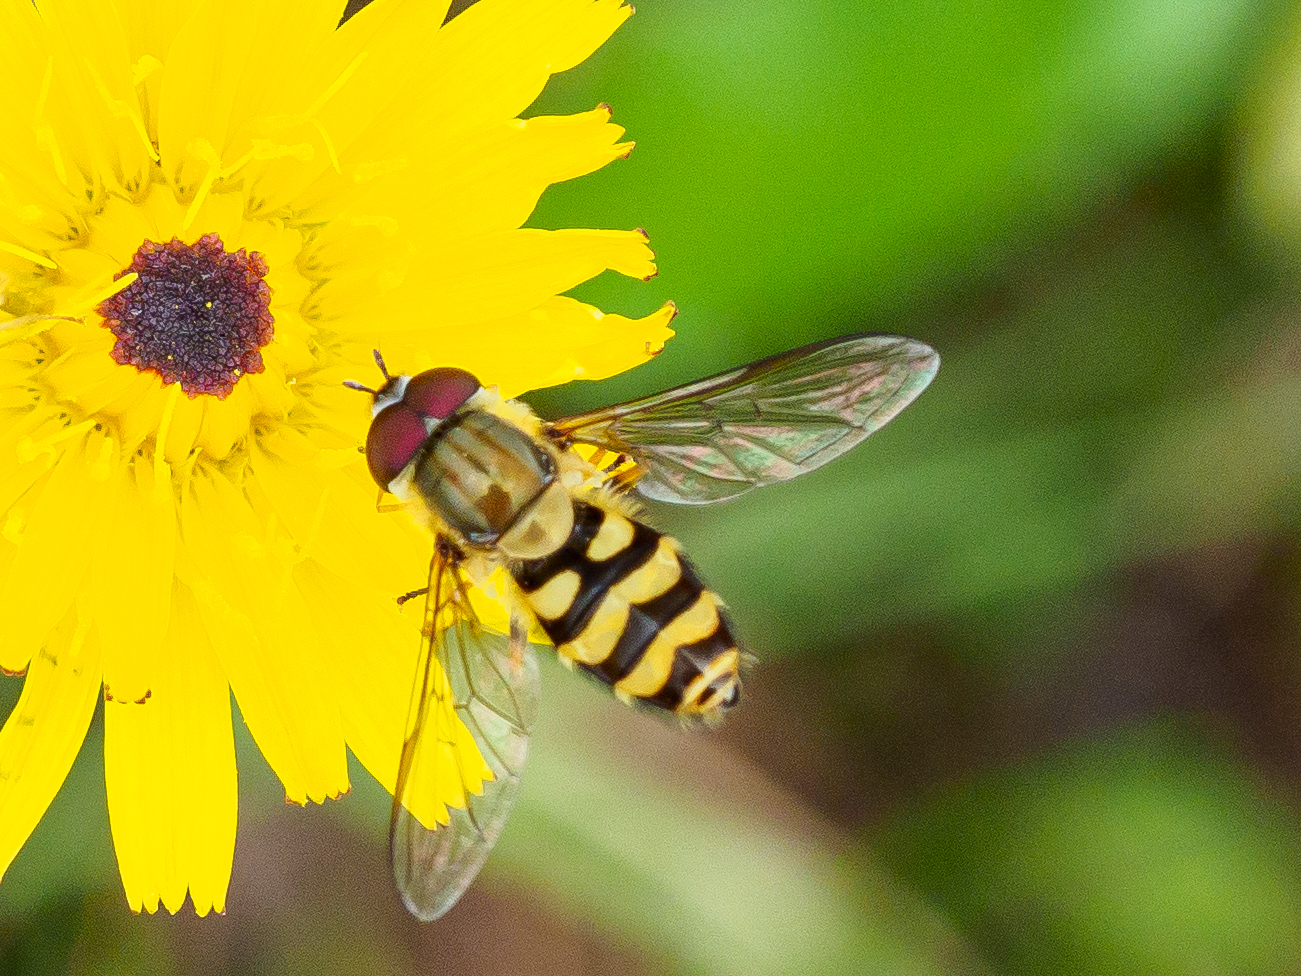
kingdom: Animalia
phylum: Arthropoda
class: Insecta
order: Diptera
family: Syrphidae
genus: Syrphus
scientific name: Syrphus
